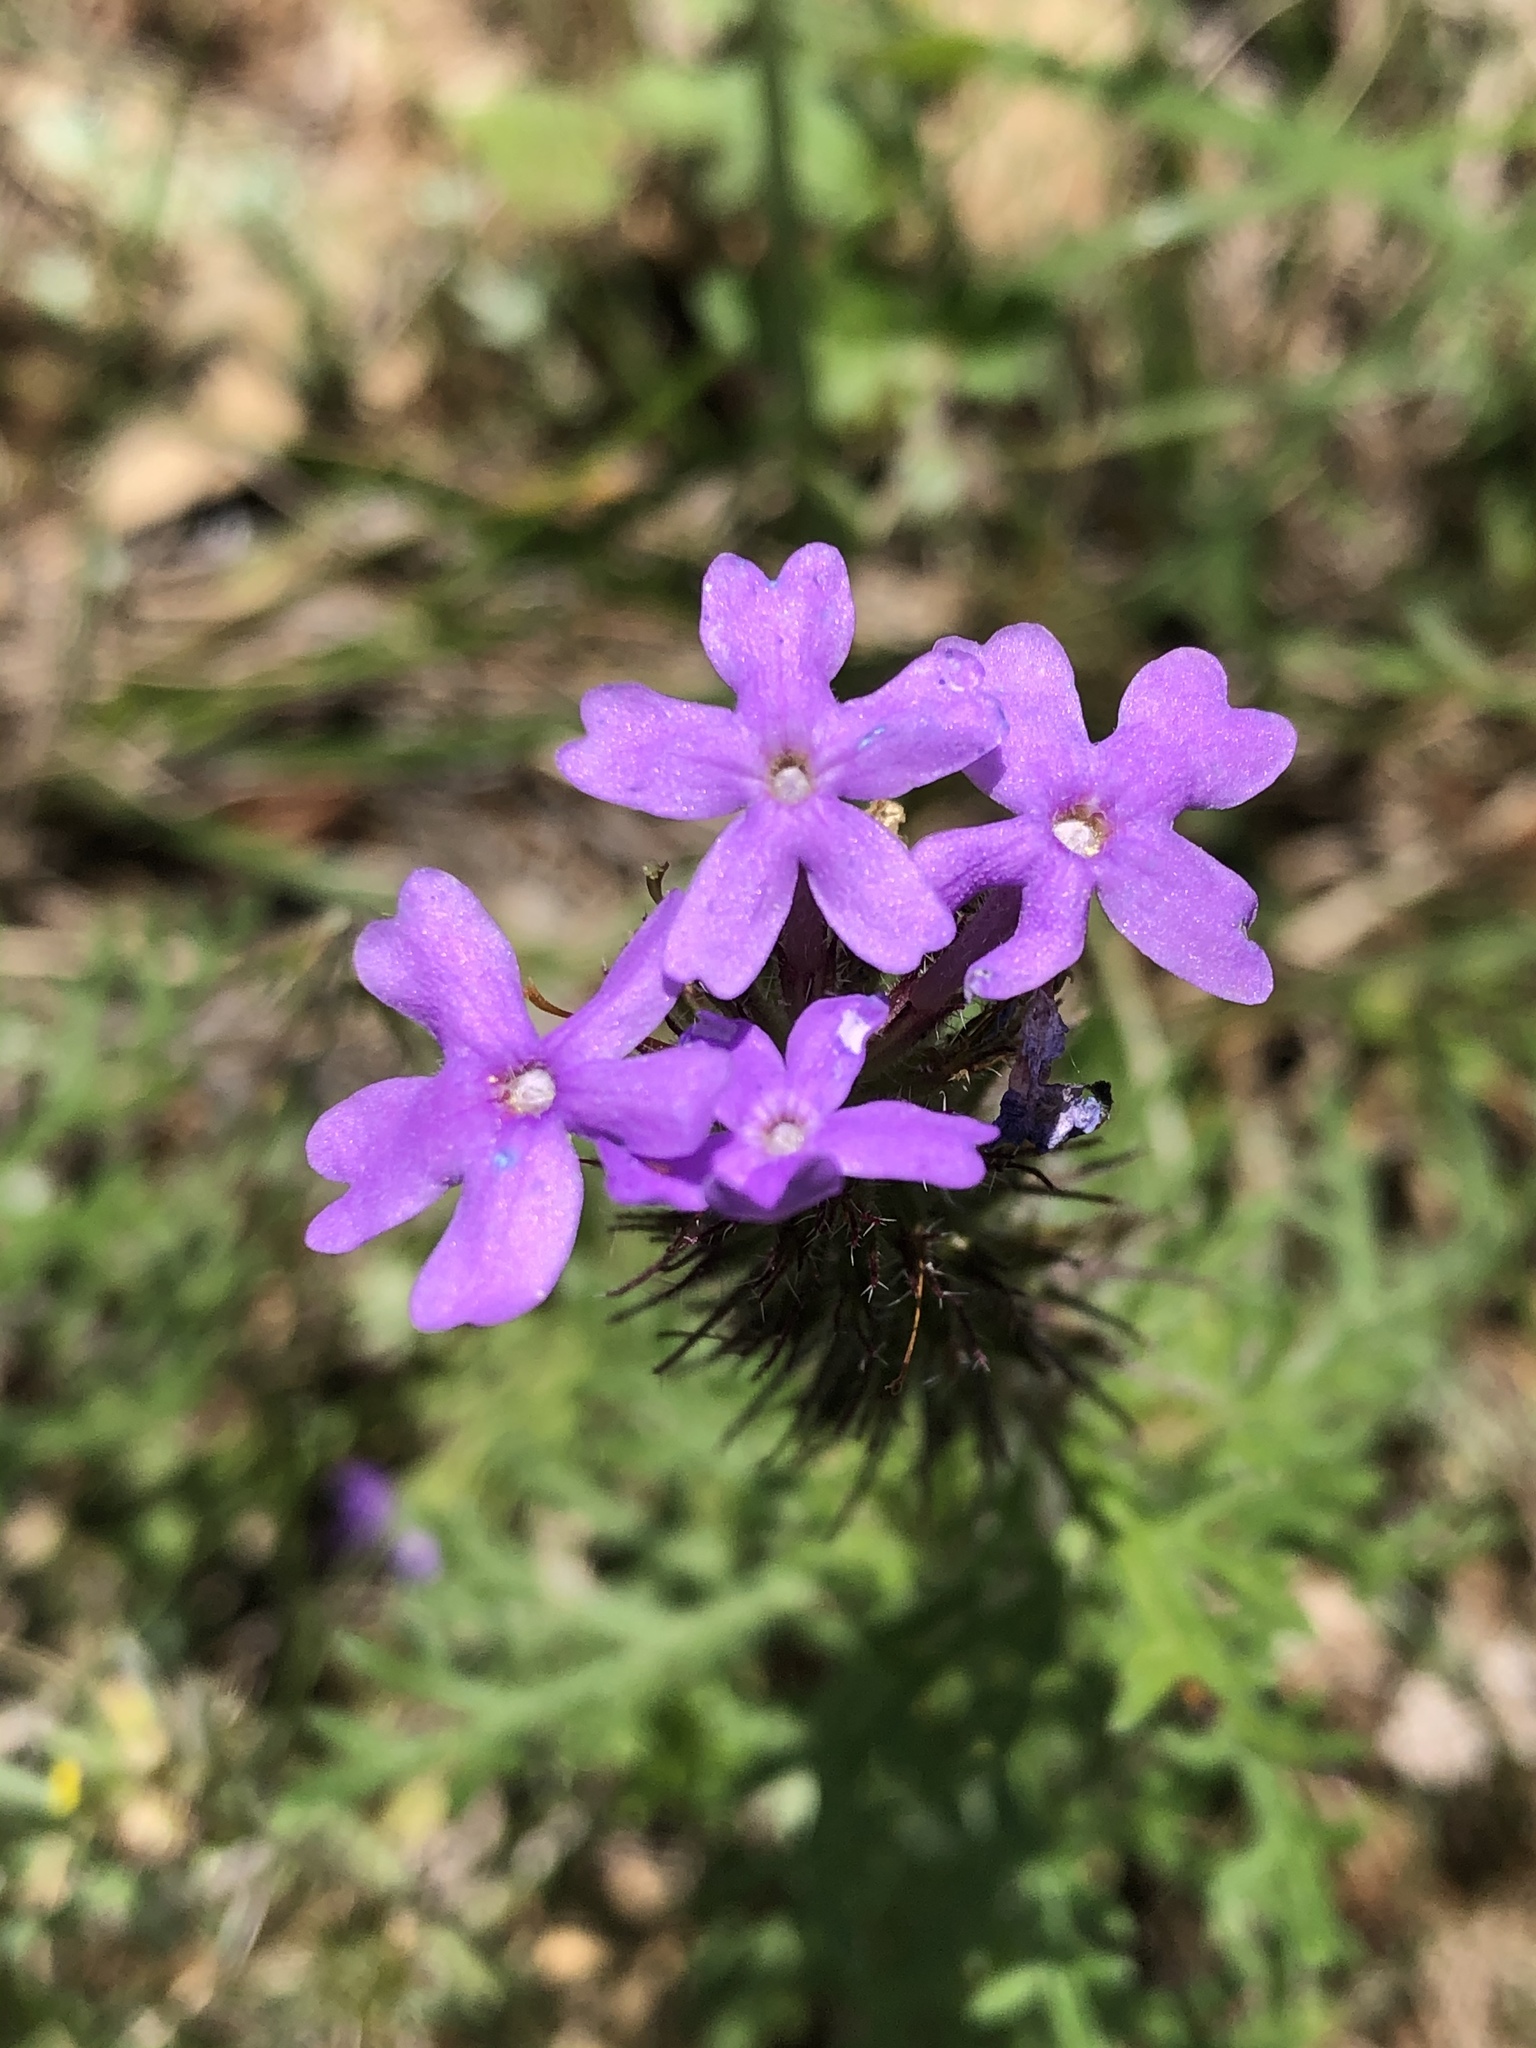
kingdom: Plantae
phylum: Tracheophyta
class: Magnoliopsida
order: Lamiales
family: Verbenaceae
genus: Verbena
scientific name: Verbena bipinnatifida
